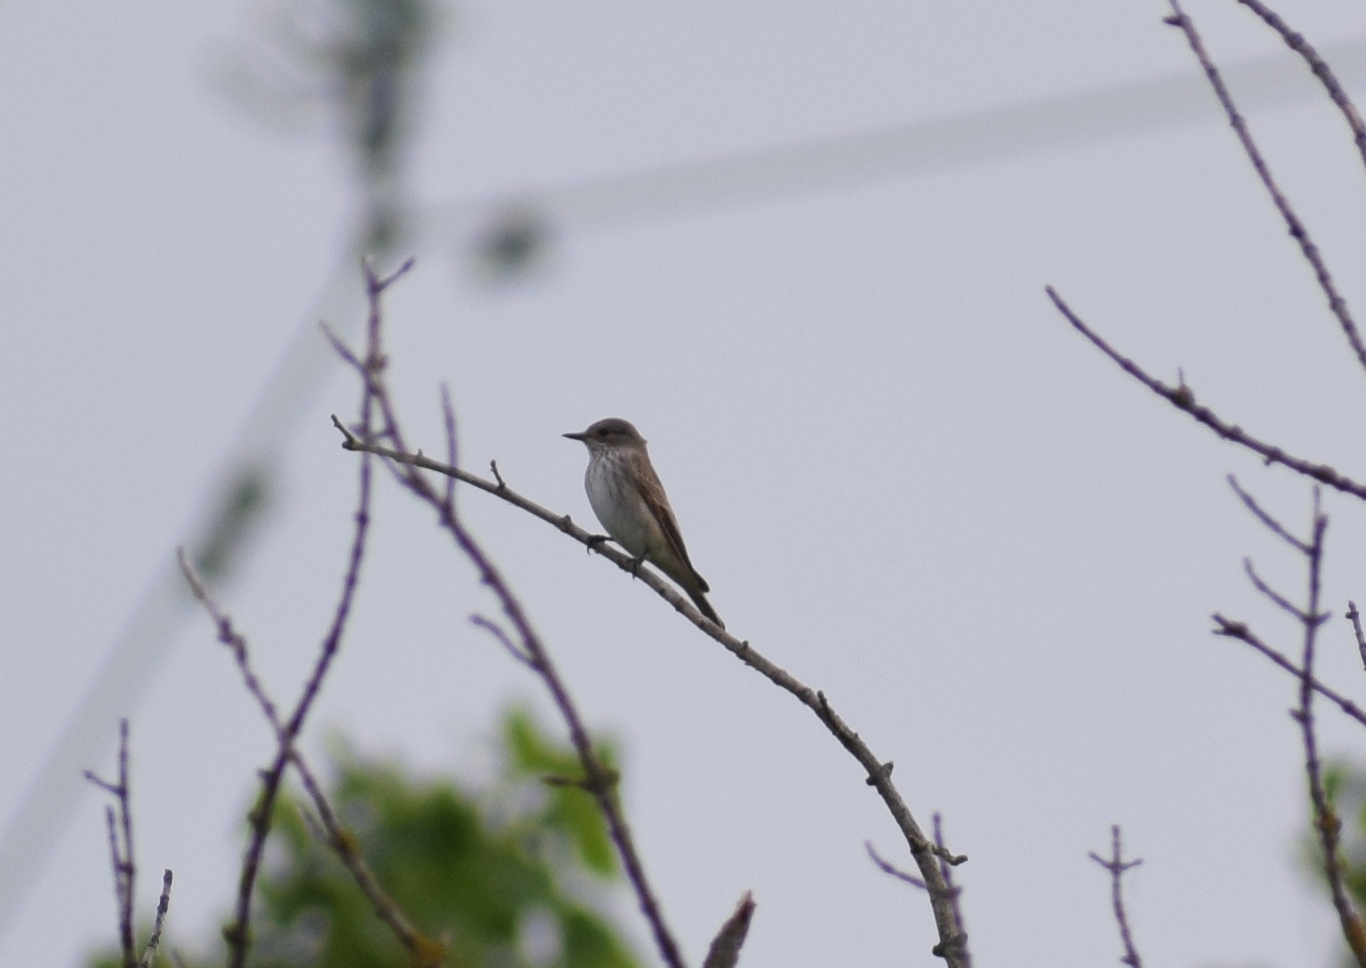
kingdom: Animalia
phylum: Chordata
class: Aves
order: Passeriformes
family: Muscicapidae
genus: Muscicapa
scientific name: Muscicapa striata
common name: Spotted flycatcher
